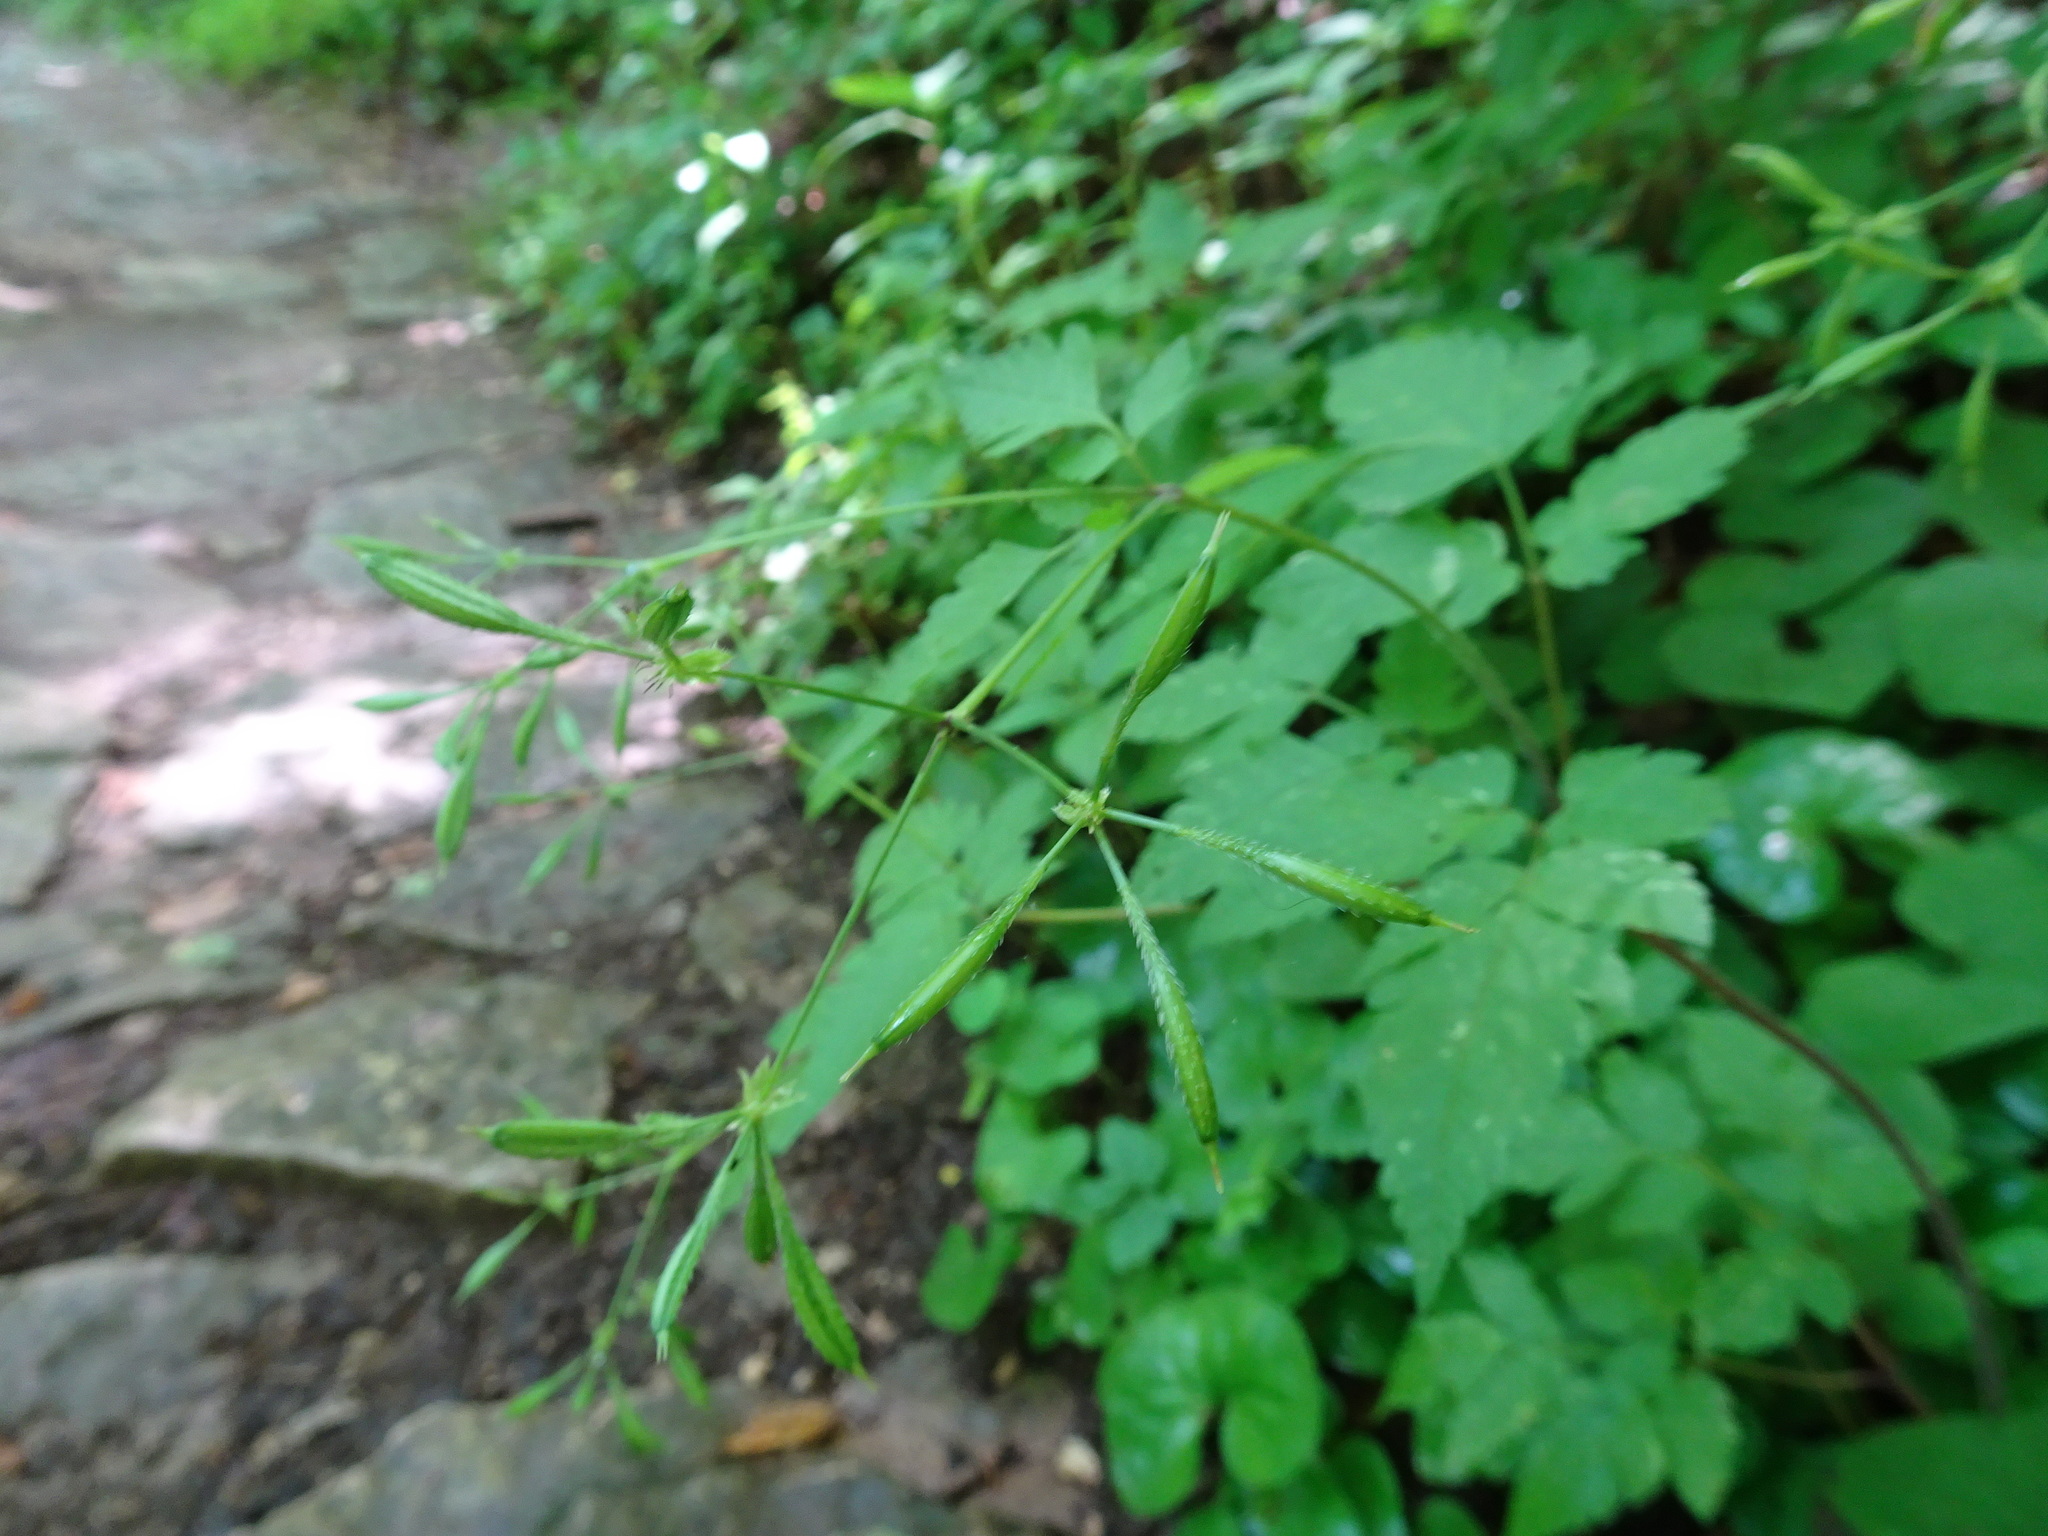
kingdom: Plantae
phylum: Tracheophyta
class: Magnoliopsida
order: Apiales
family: Apiaceae
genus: Osmorhiza
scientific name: Osmorhiza longistylis
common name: Smooth sweet cicely
